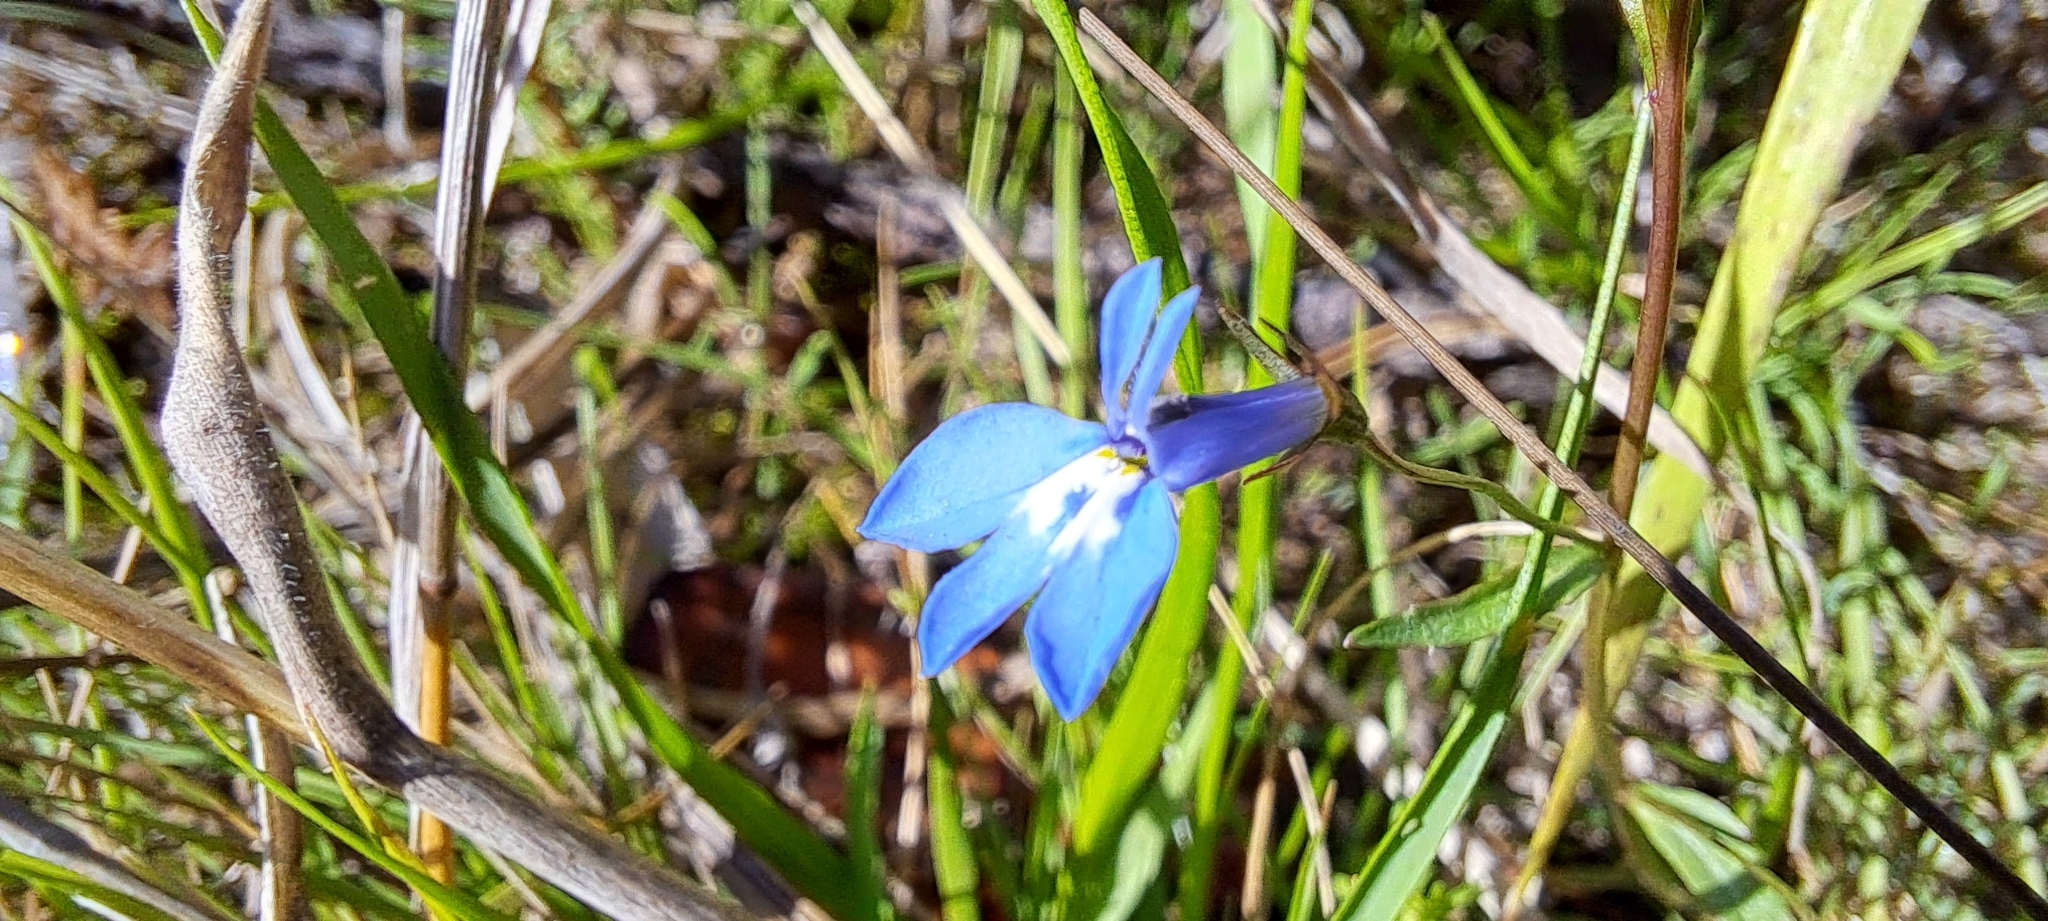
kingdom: Plantae
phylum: Tracheophyta
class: Magnoliopsida
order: Asterales
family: Campanulaceae
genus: Lobelia
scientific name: Lobelia erinus
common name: Edging lobelia
